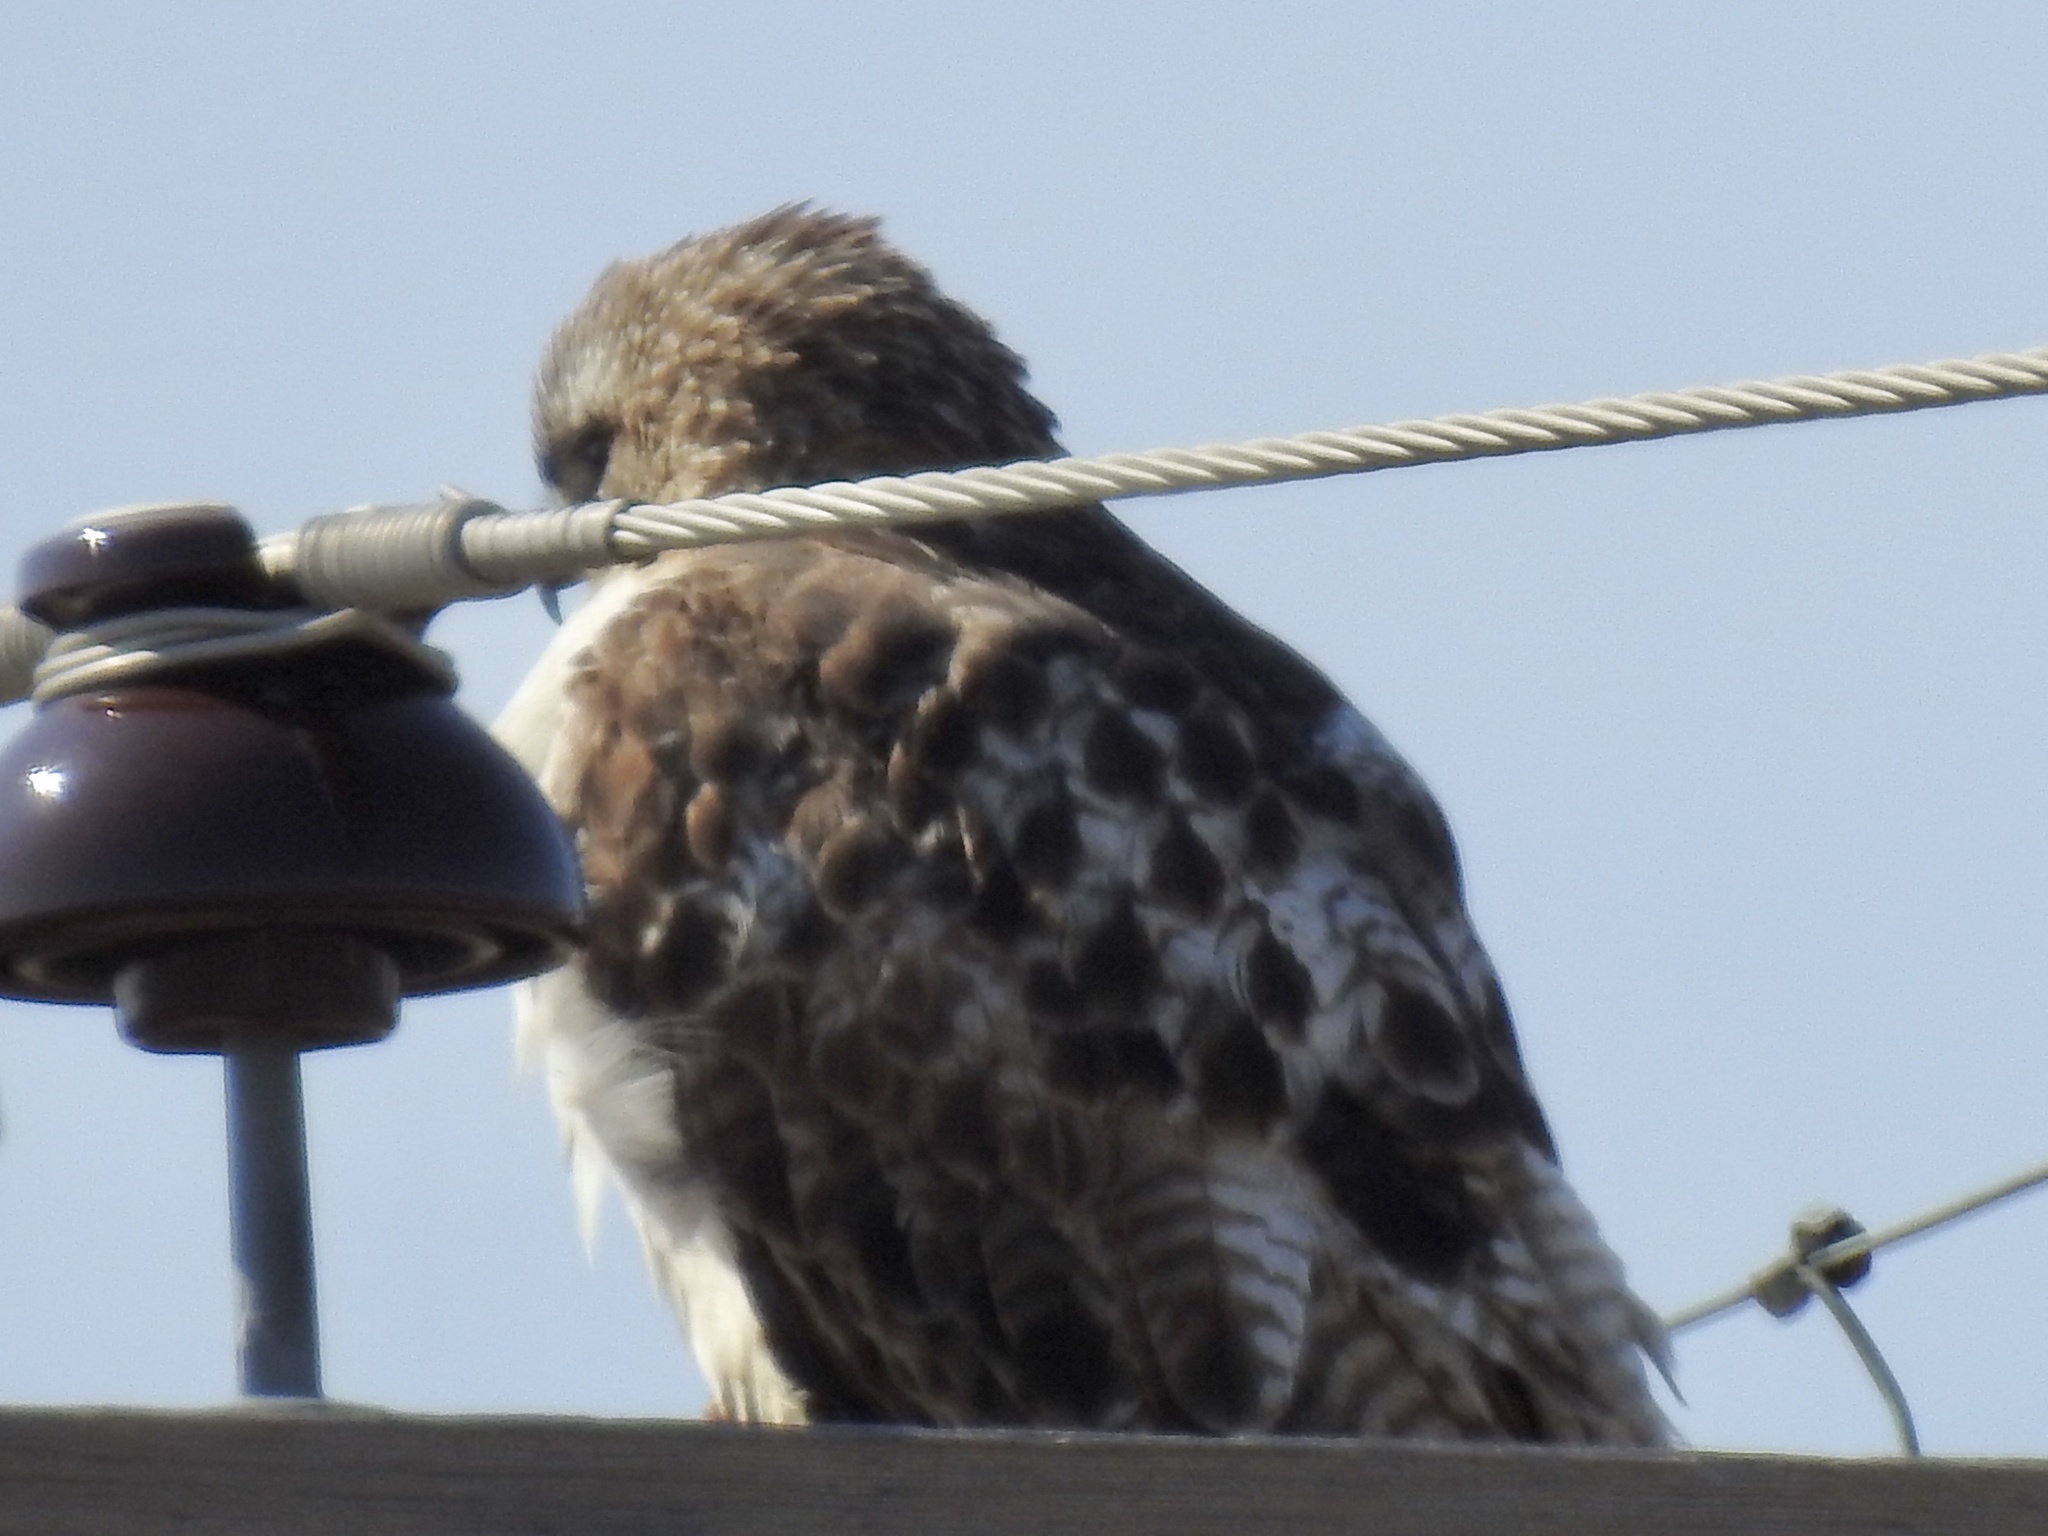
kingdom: Animalia
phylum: Chordata
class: Aves
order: Accipitriformes
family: Accipitridae
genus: Buteo
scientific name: Buteo jamaicensis
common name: Red-tailed hawk
